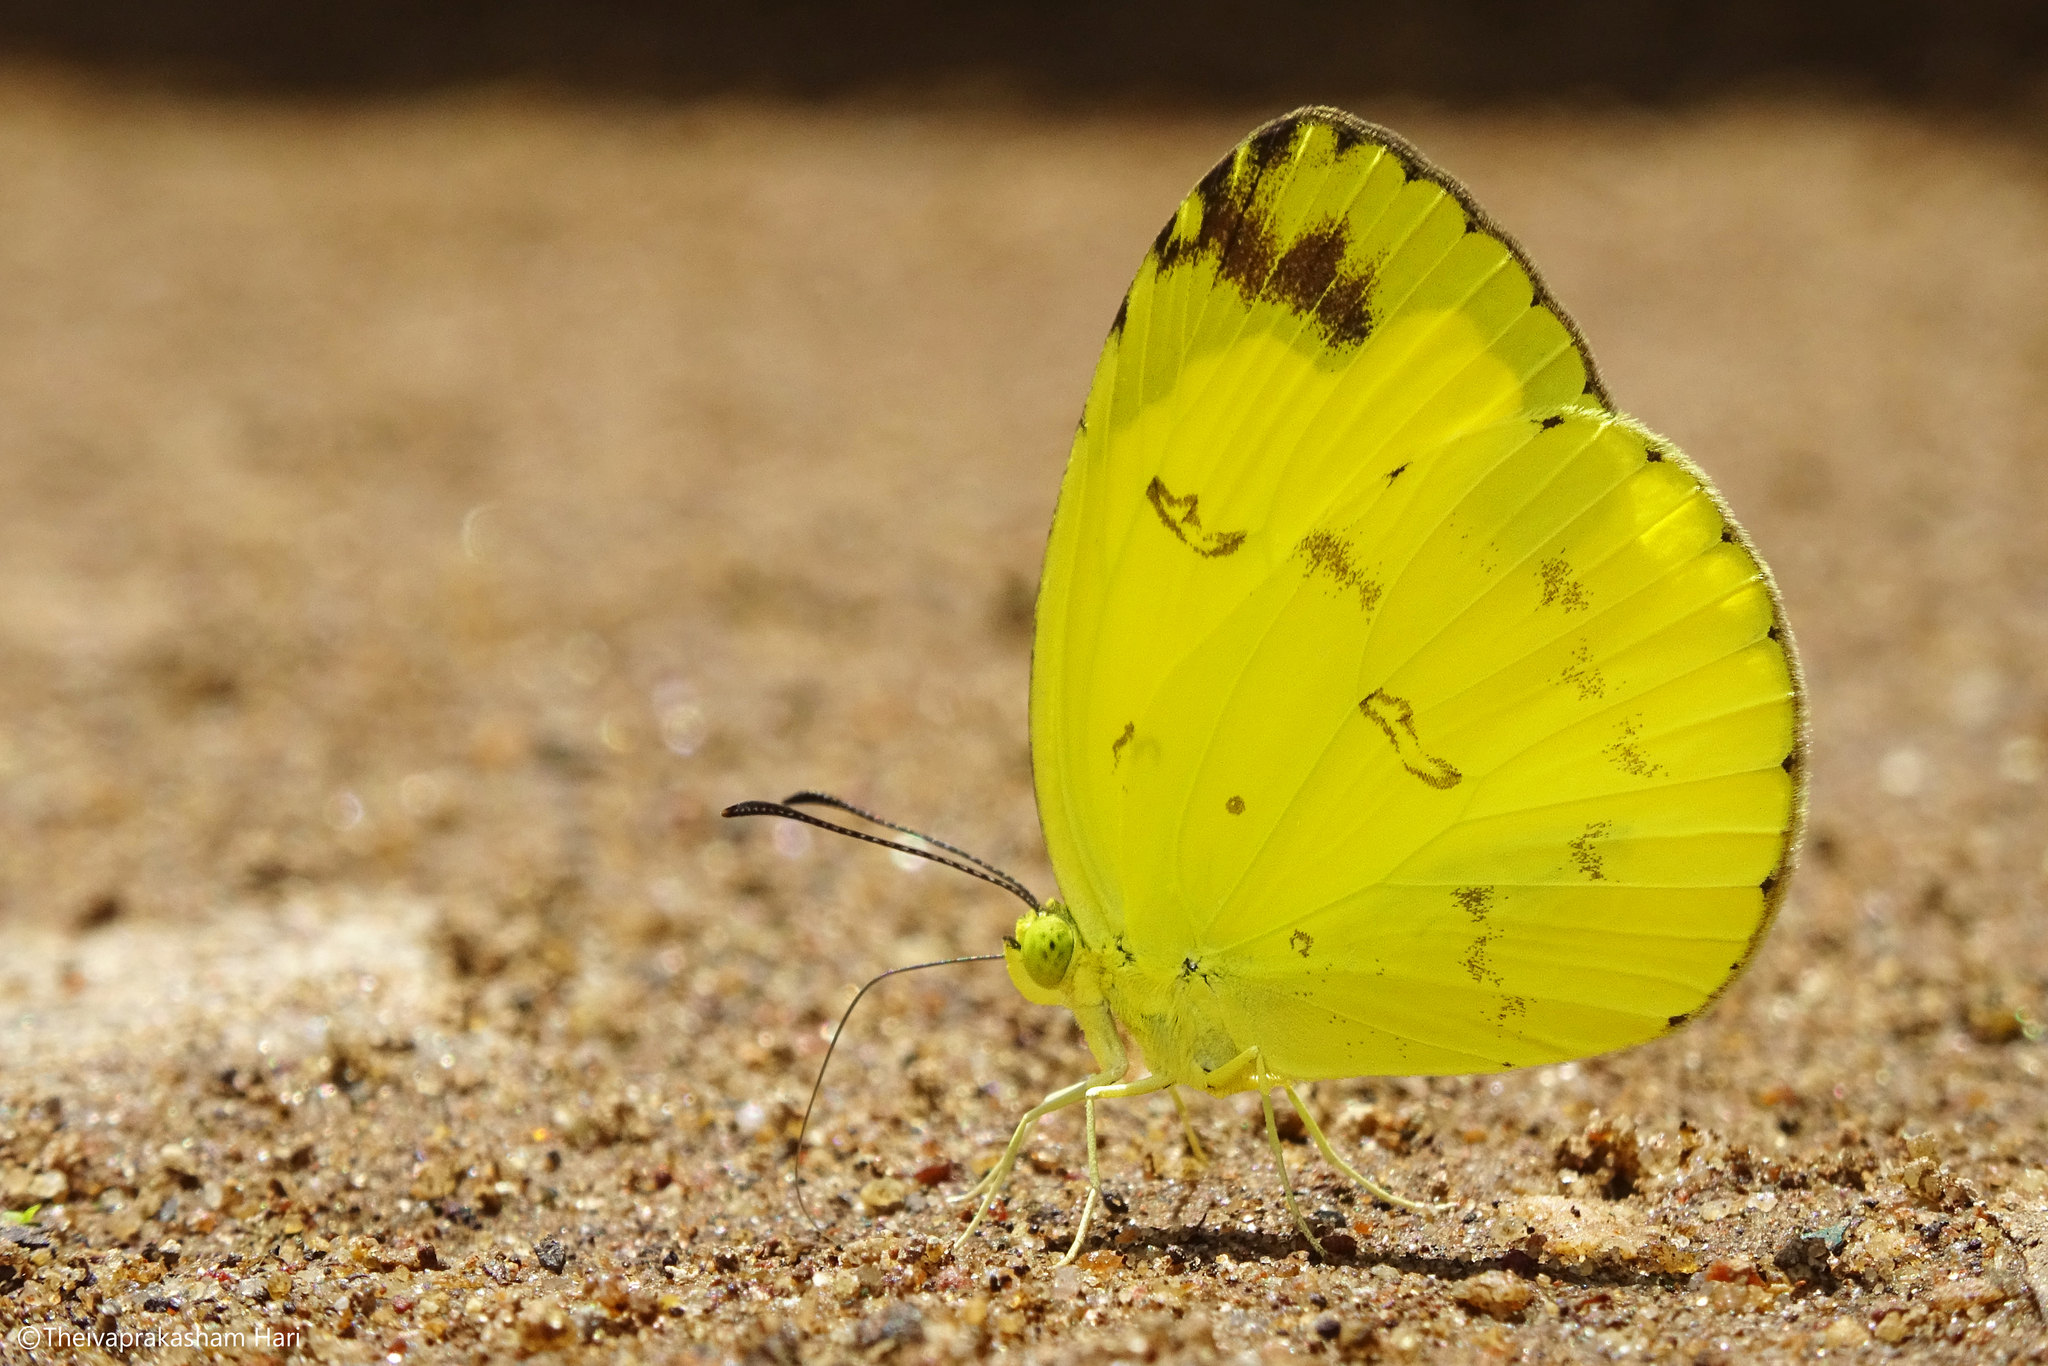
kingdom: Animalia
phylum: Arthropoda
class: Insecta
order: Lepidoptera
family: Pieridae
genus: Eurema
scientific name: Eurema andersoni
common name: One-spot yellow grass
